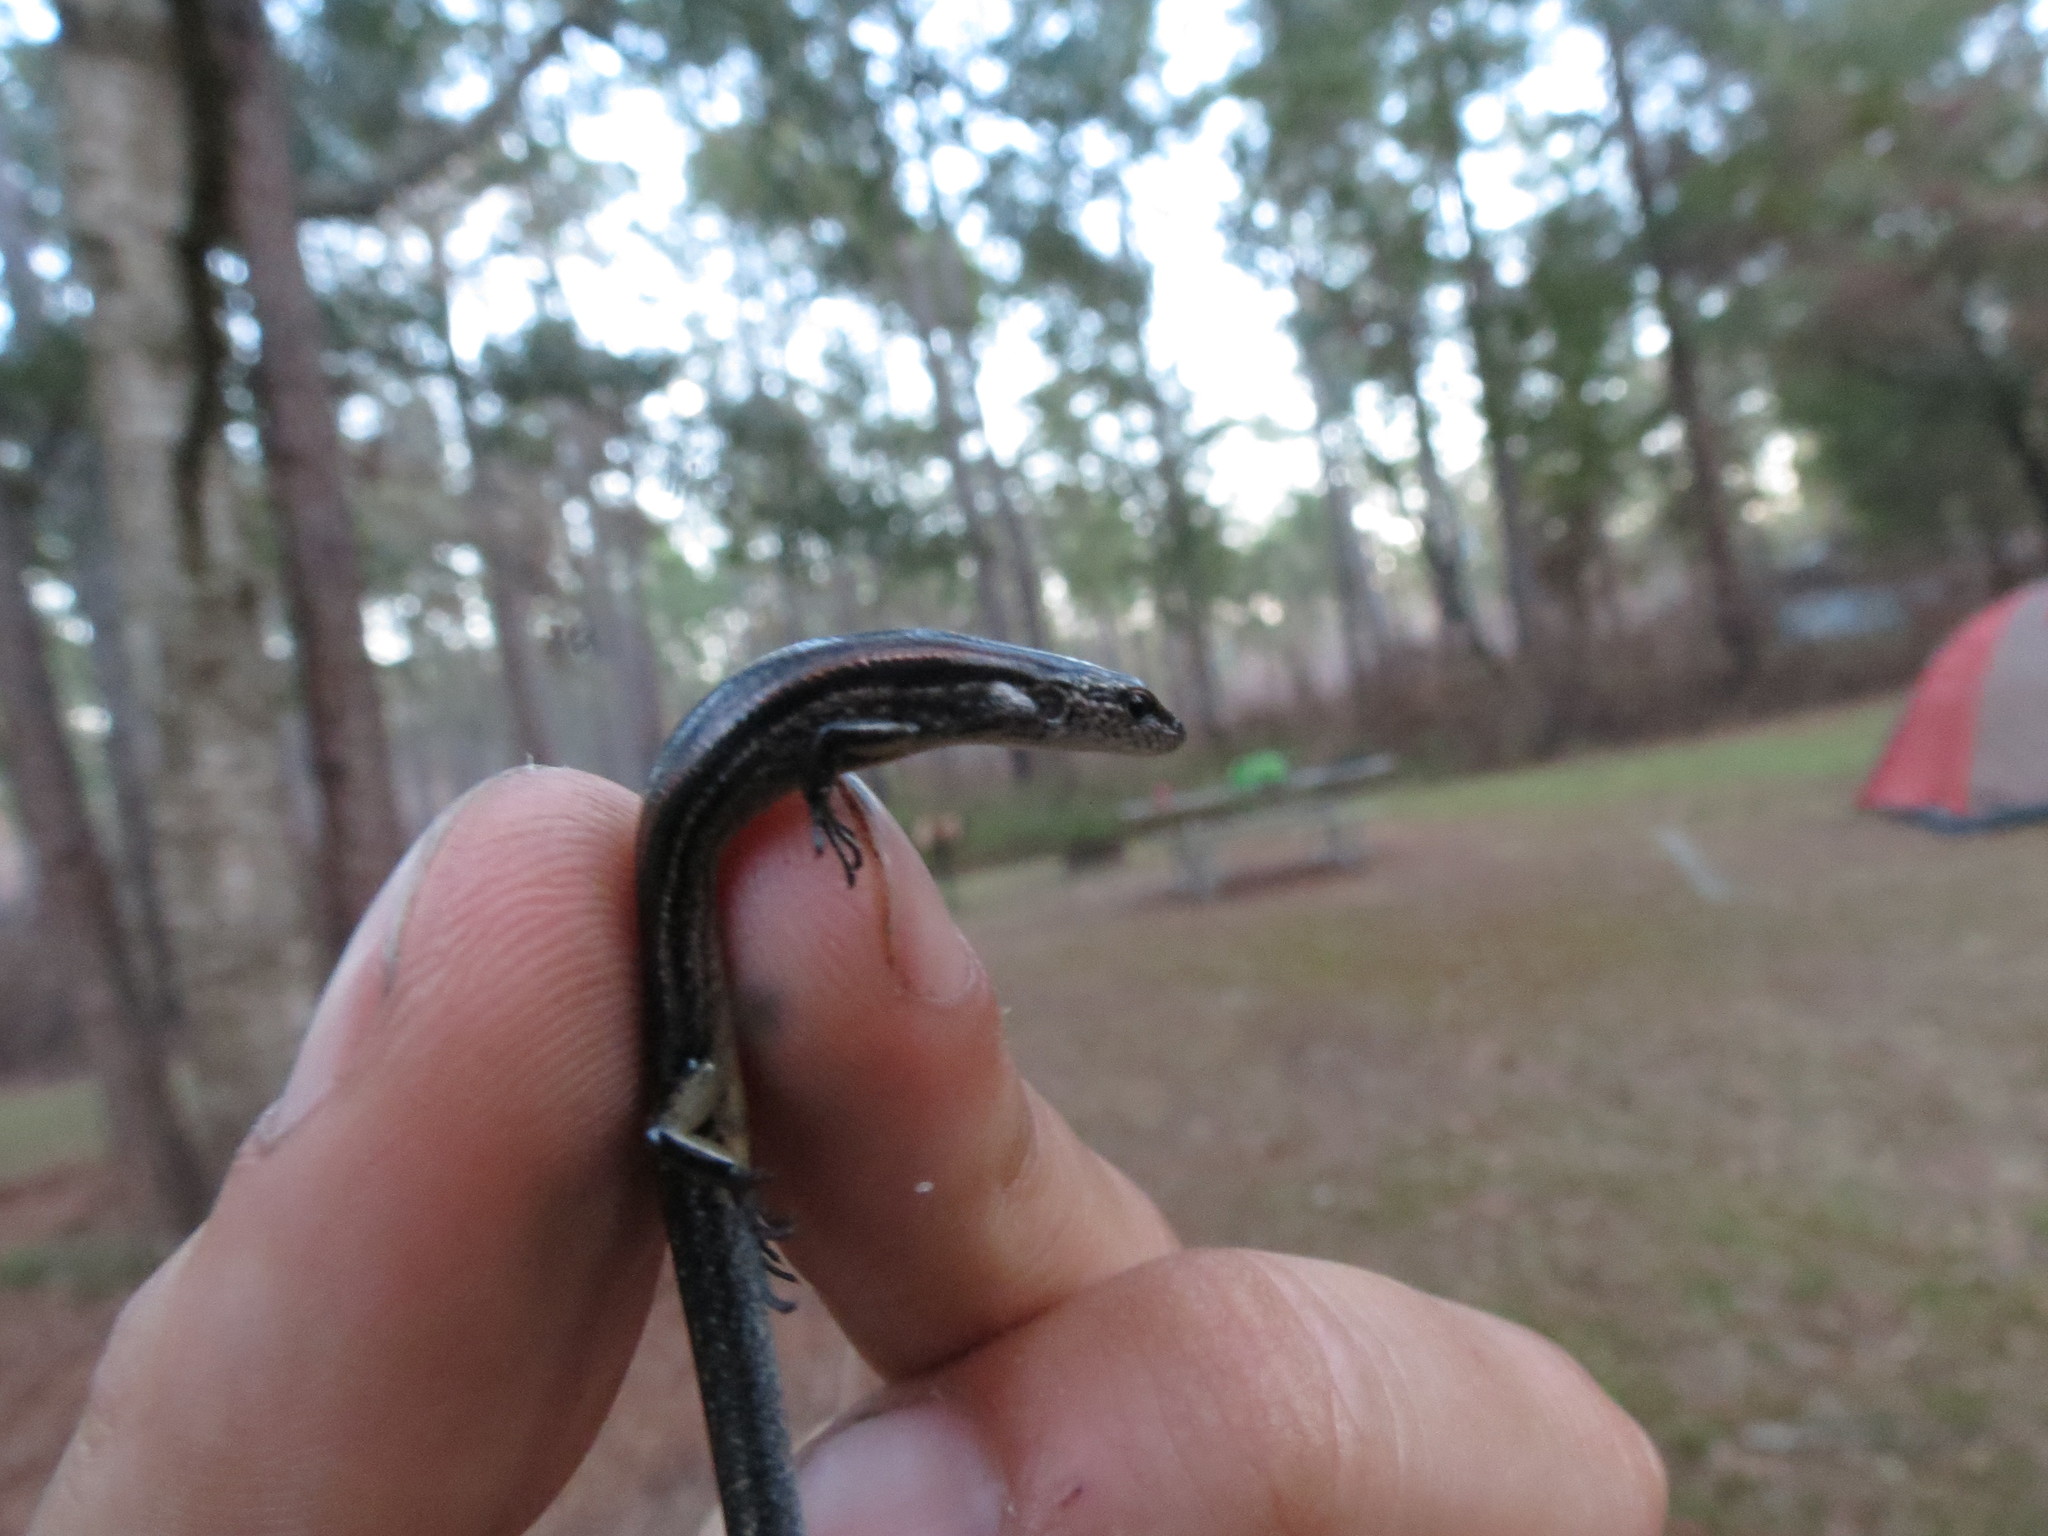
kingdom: Animalia
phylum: Chordata
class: Squamata
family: Scincidae
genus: Scincella
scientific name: Scincella lateralis
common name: Ground skink
